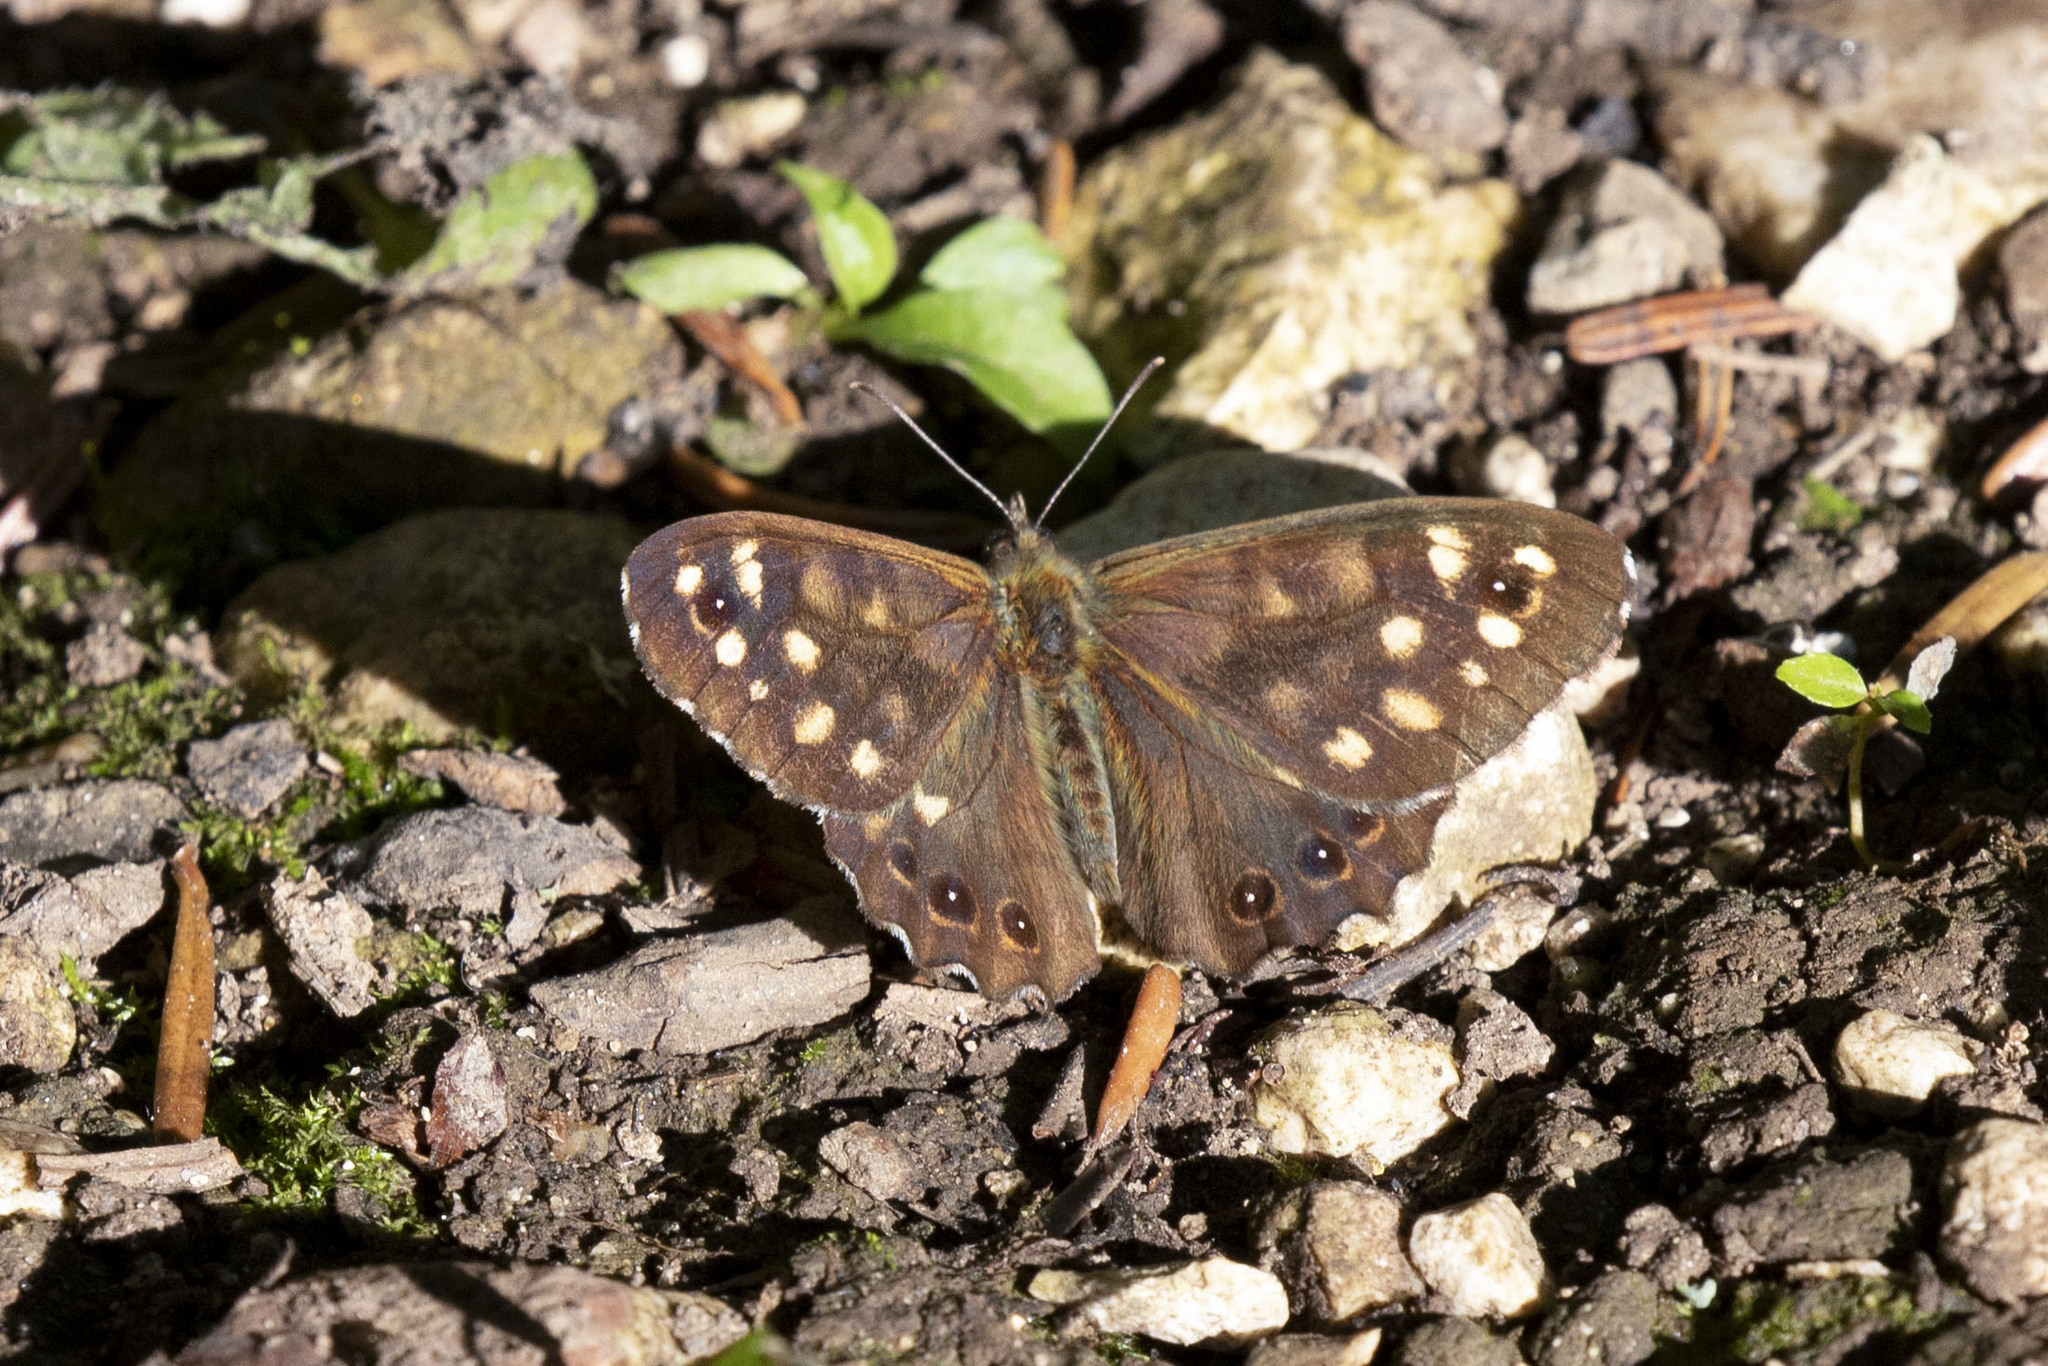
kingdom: Animalia
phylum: Arthropoda
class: Insecta
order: Lepidoptera
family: Nymphalidae
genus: Pararge
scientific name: Pararge aegeria
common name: Speckled wood
